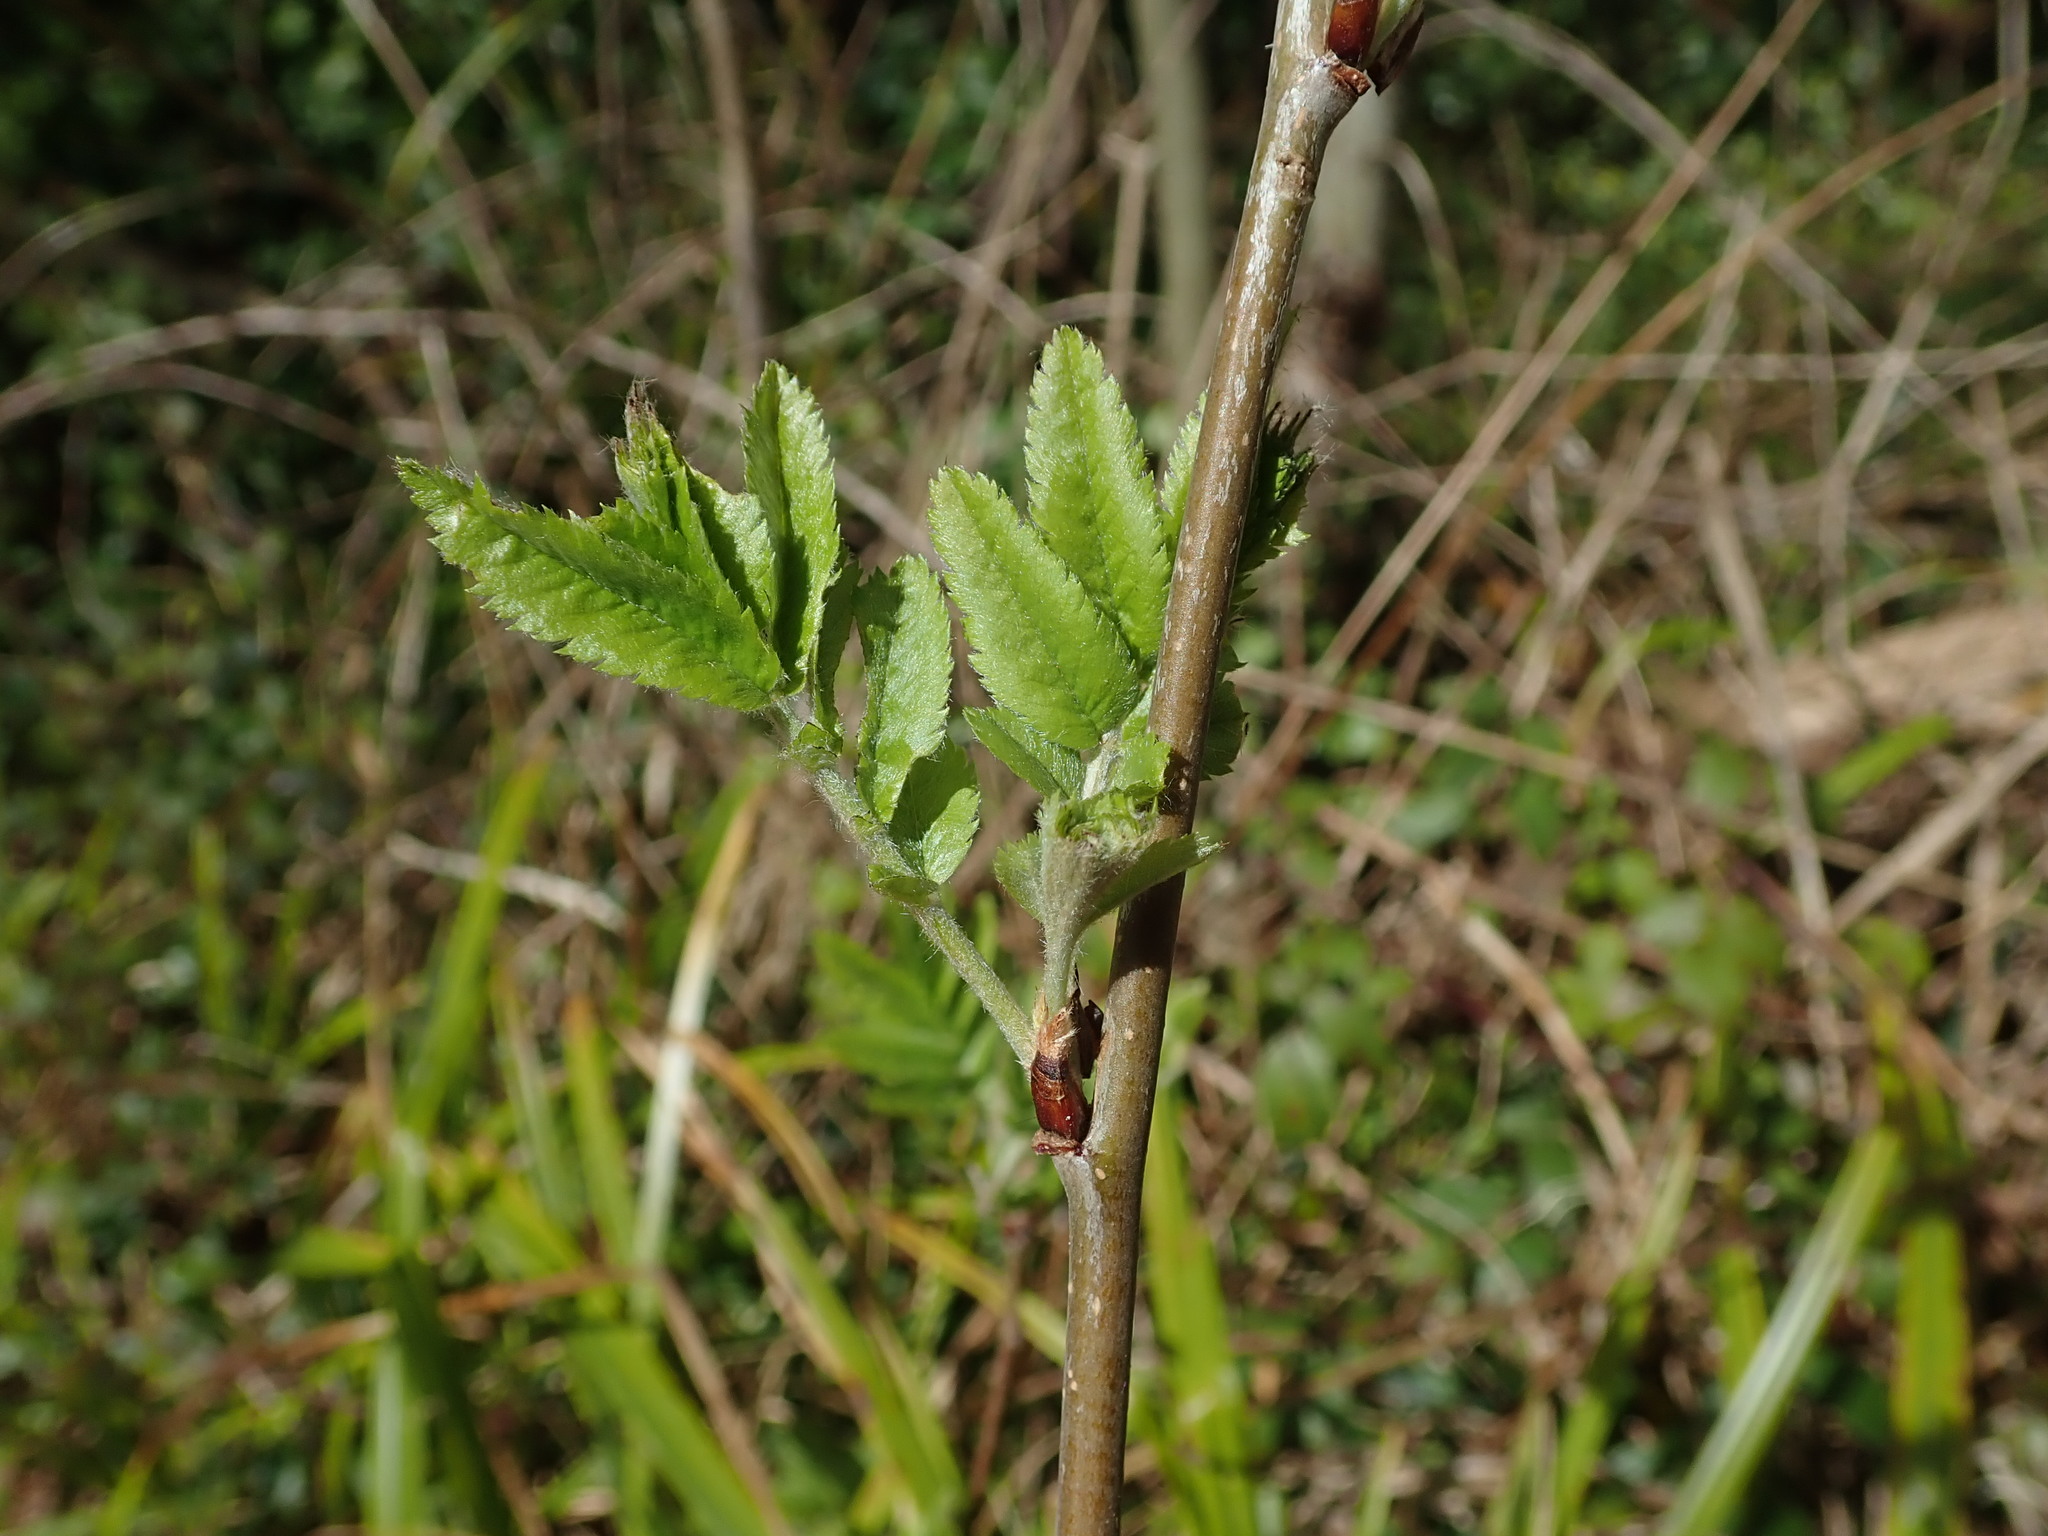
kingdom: Plantae
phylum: Tracheophyta
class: Magnoliopsida
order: Rosales
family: Rosaceae
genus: Sorbus
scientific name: Sorbus aucuparia
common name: Rowan
